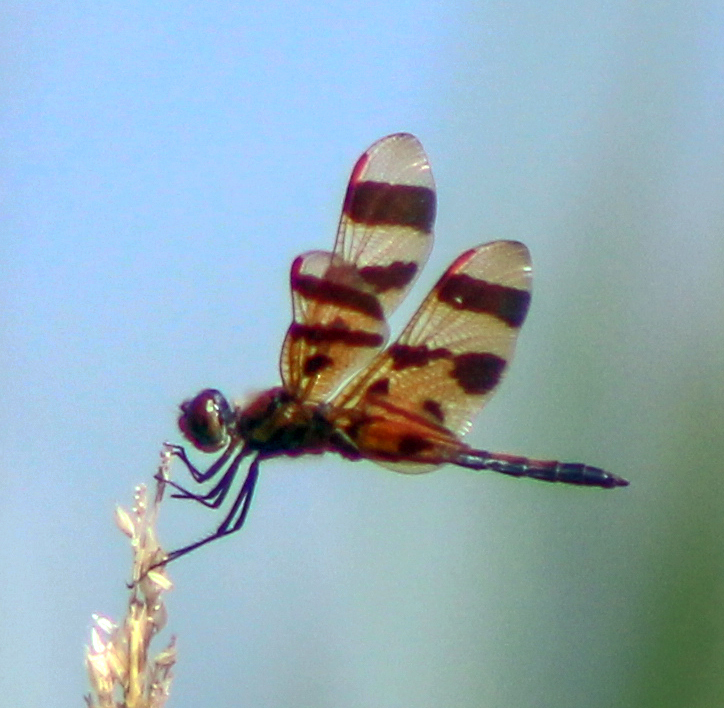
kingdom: Animalia
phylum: Arthropoda
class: Insecta
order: Odonata
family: Libellulidae
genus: Celithemis
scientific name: Celithemis eponina
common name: Halloween pennant
